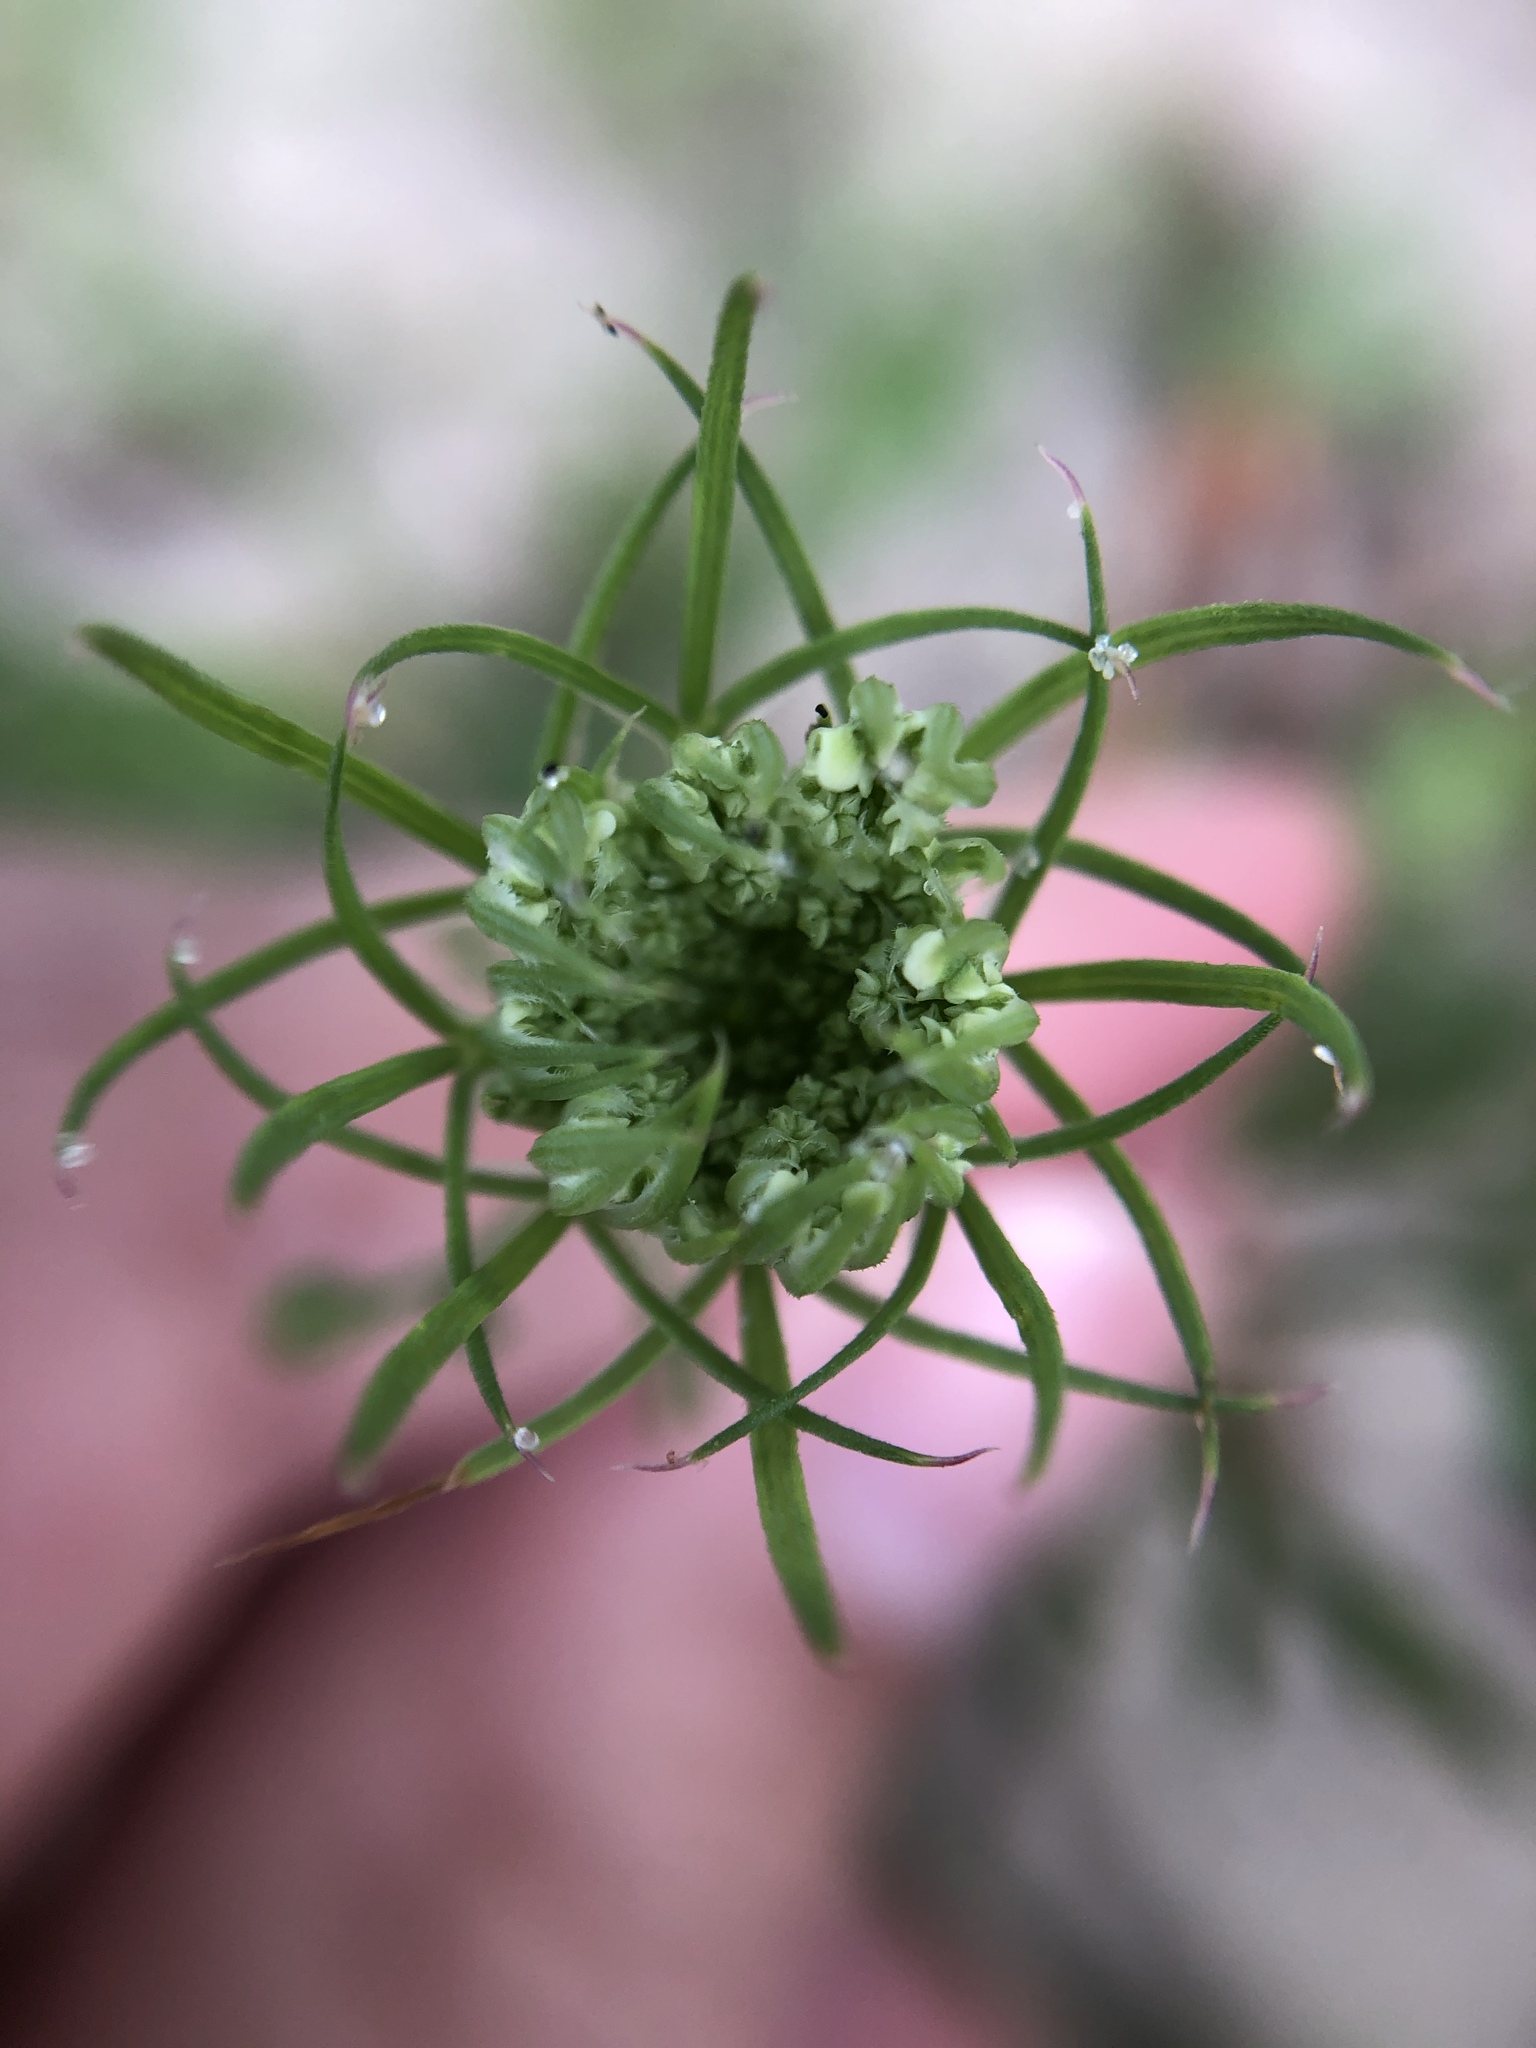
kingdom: Plantae
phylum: Tracheophyta
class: Magnoliopsida
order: Apiales
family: Apiaceae
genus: Daucus
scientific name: Daucus carota
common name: Wild carrot
